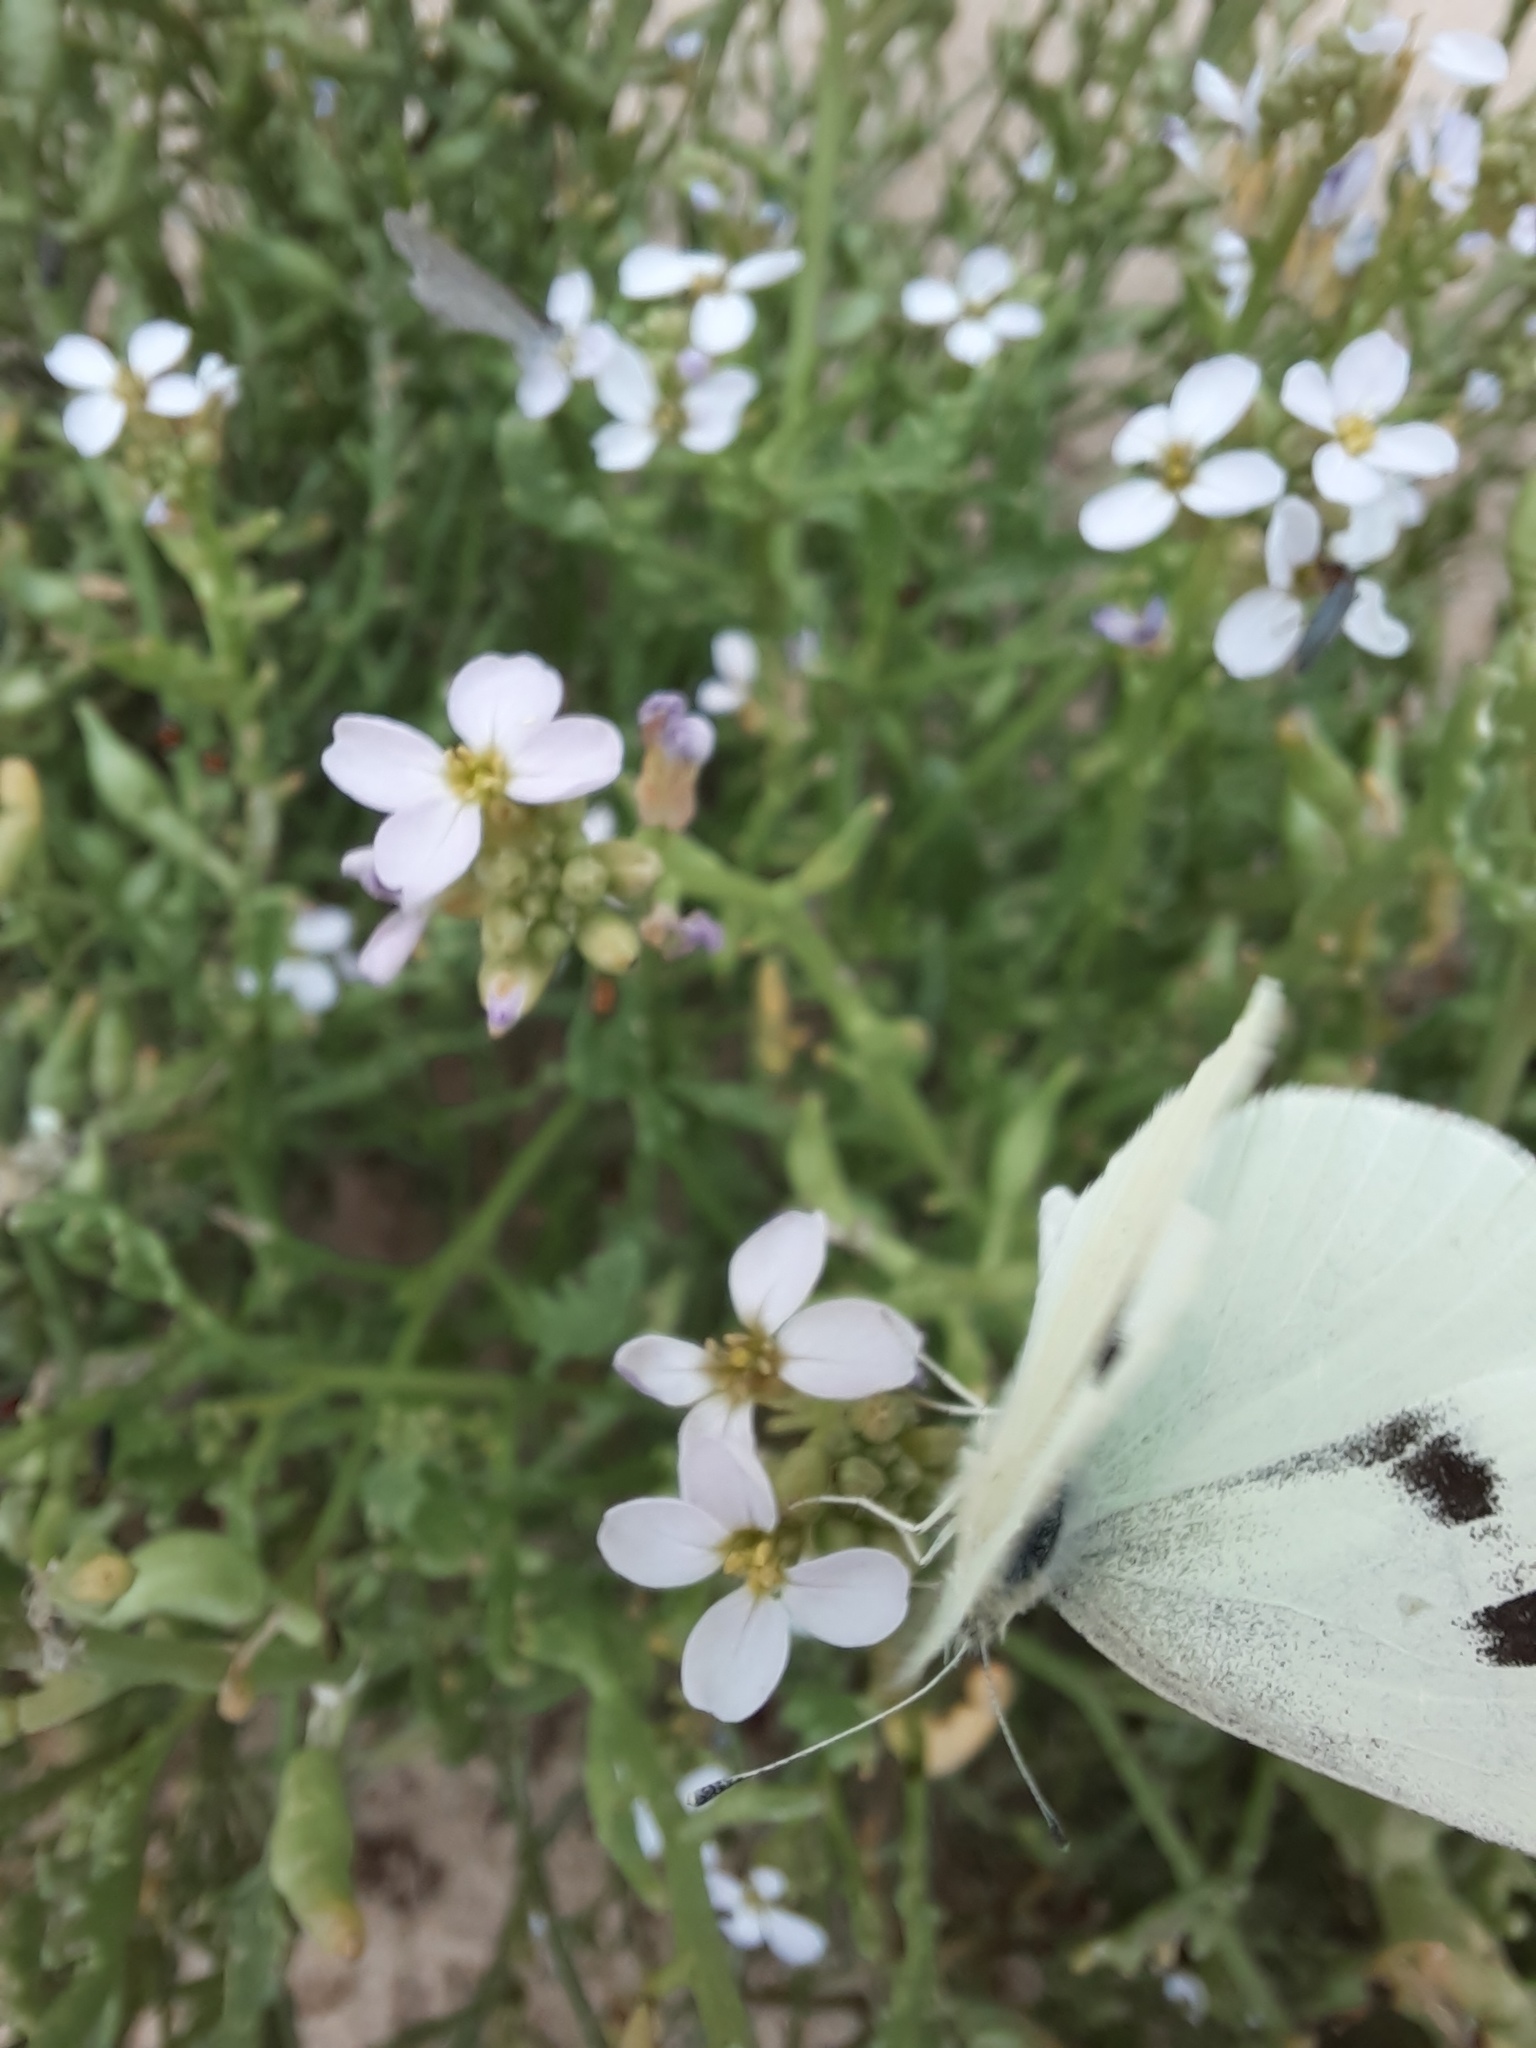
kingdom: Animalia
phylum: Arthropoda
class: Insecta
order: Lepidoptera
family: Pieridae
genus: Pieris
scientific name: Pieris rapae
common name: Small white
